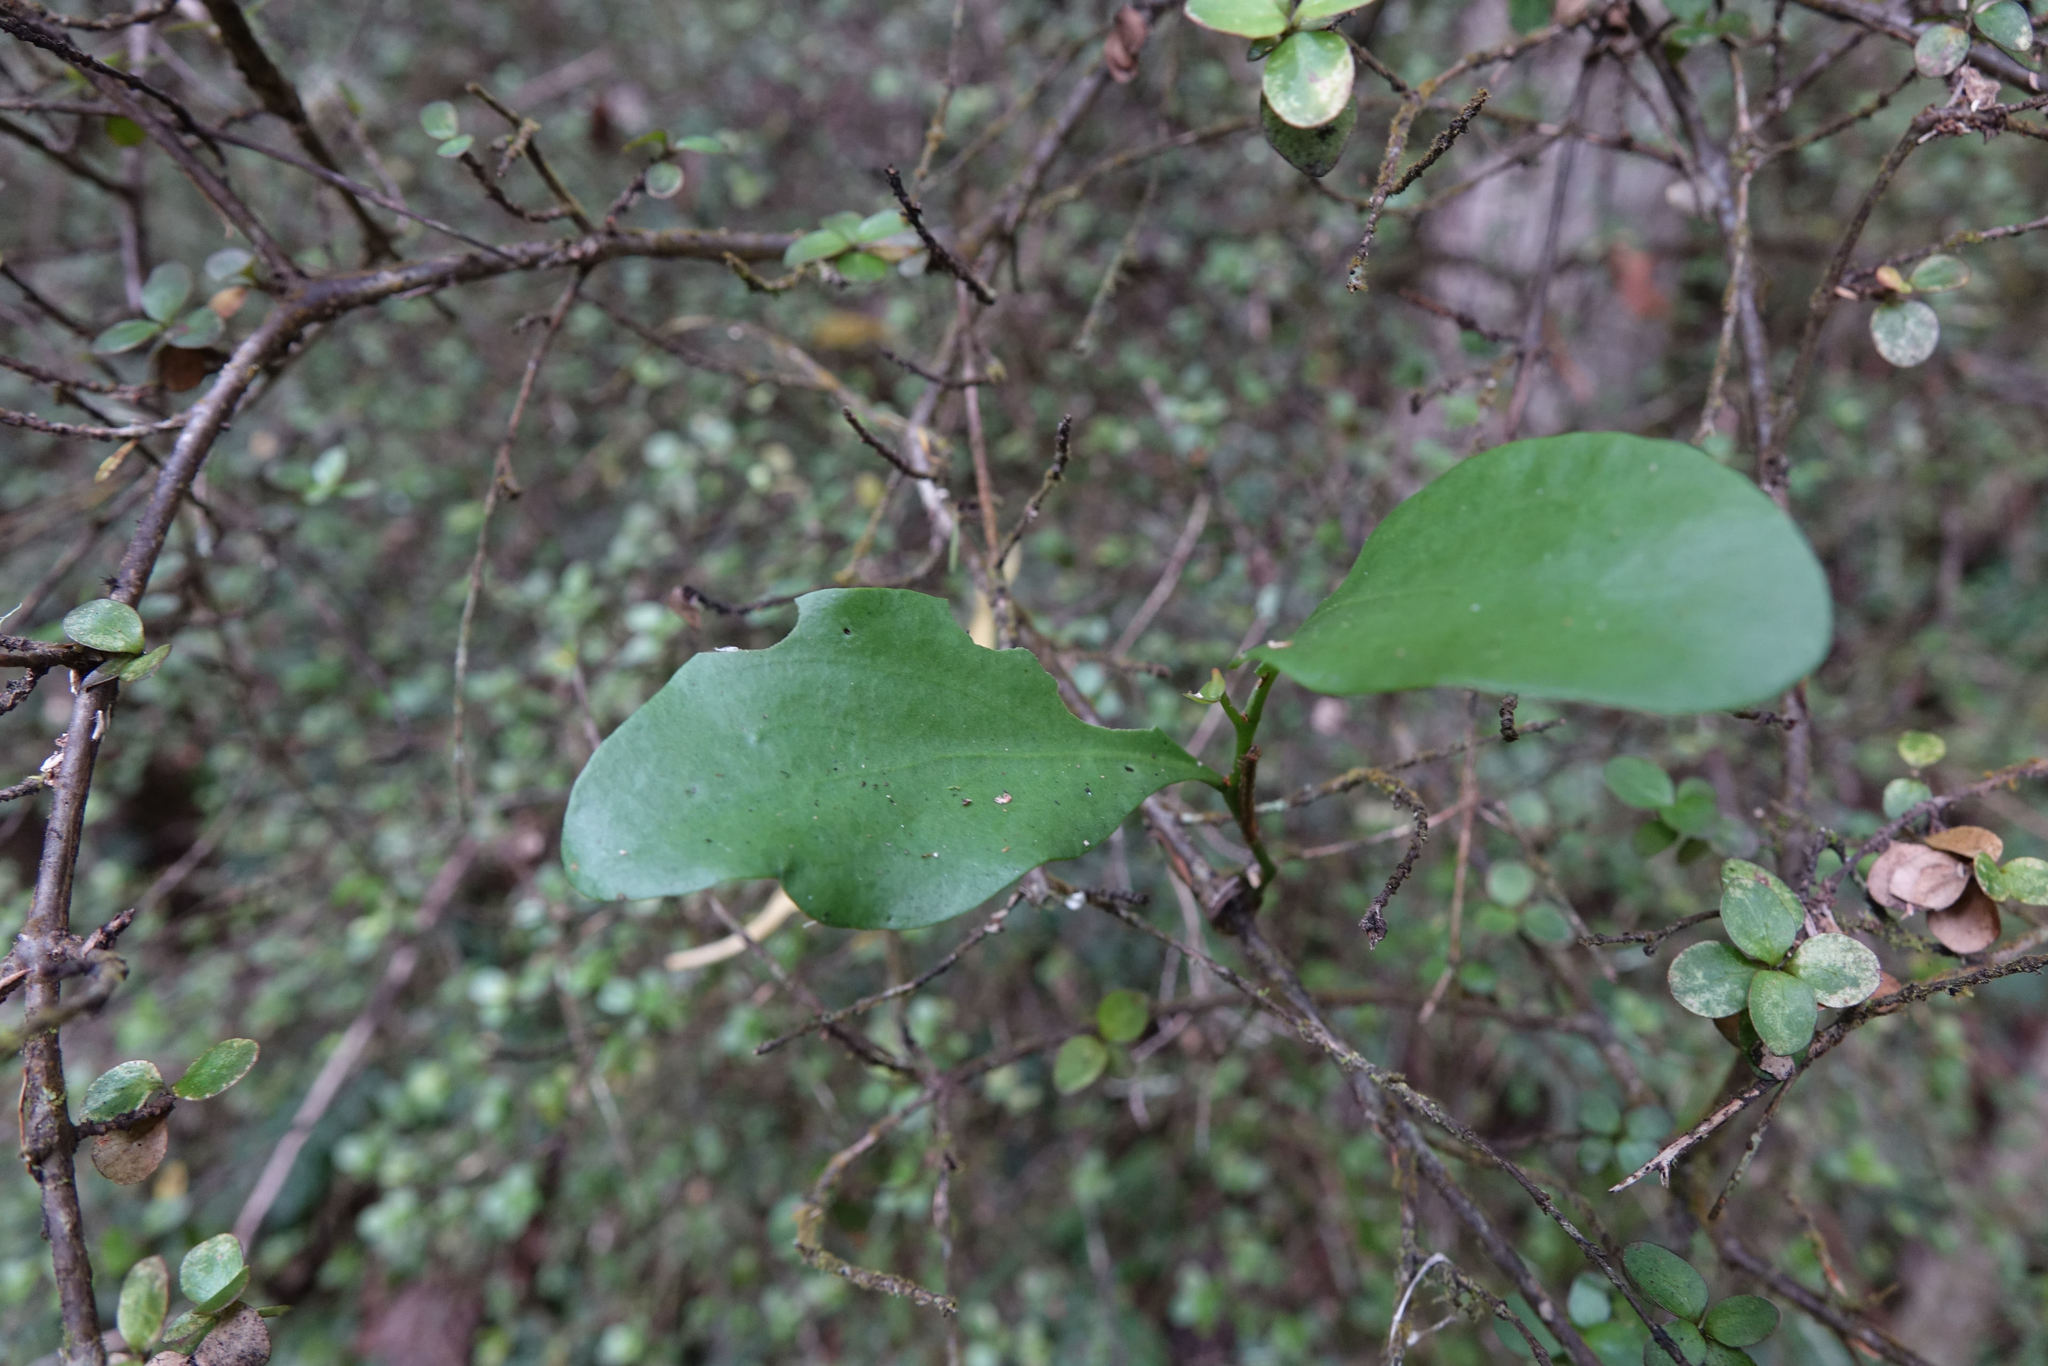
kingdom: Plantae
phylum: Tracheophyta
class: Magnoliopsida
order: Santalales
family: Loranthaceae
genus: Ileostylus
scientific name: Ileostylus micranthus
